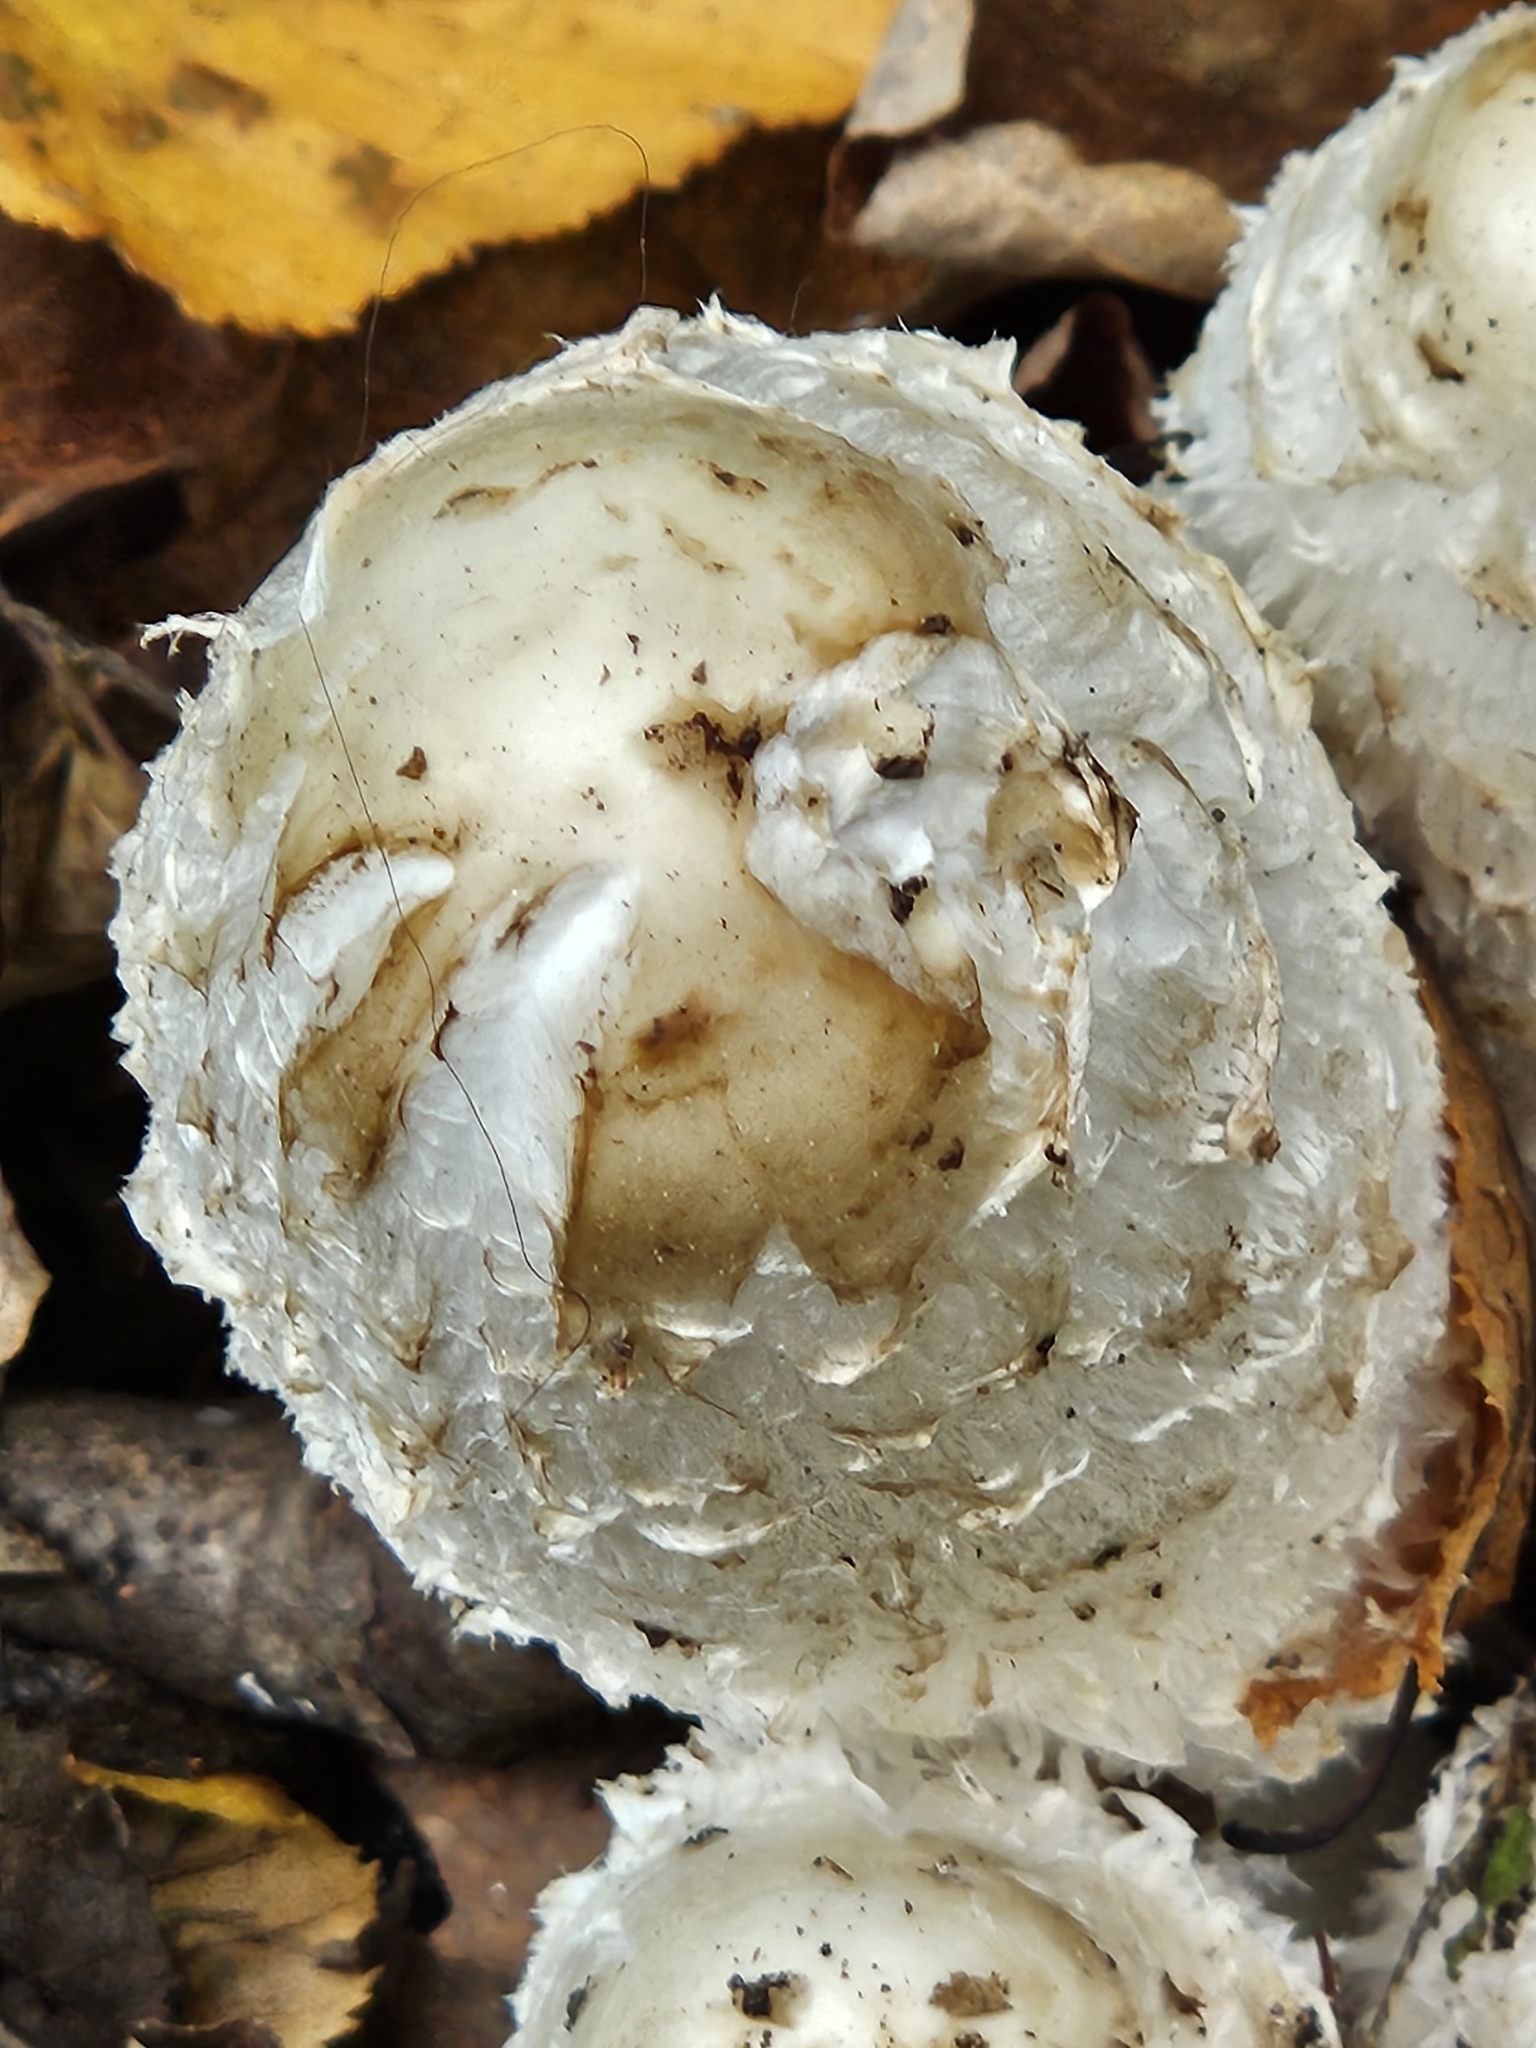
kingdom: Fungi
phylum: Basidiomycota
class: Agaricomycetes
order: Agaricales
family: Agaricaceae
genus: Coprinus
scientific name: Coprinus comatus
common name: Lawyer's wig
